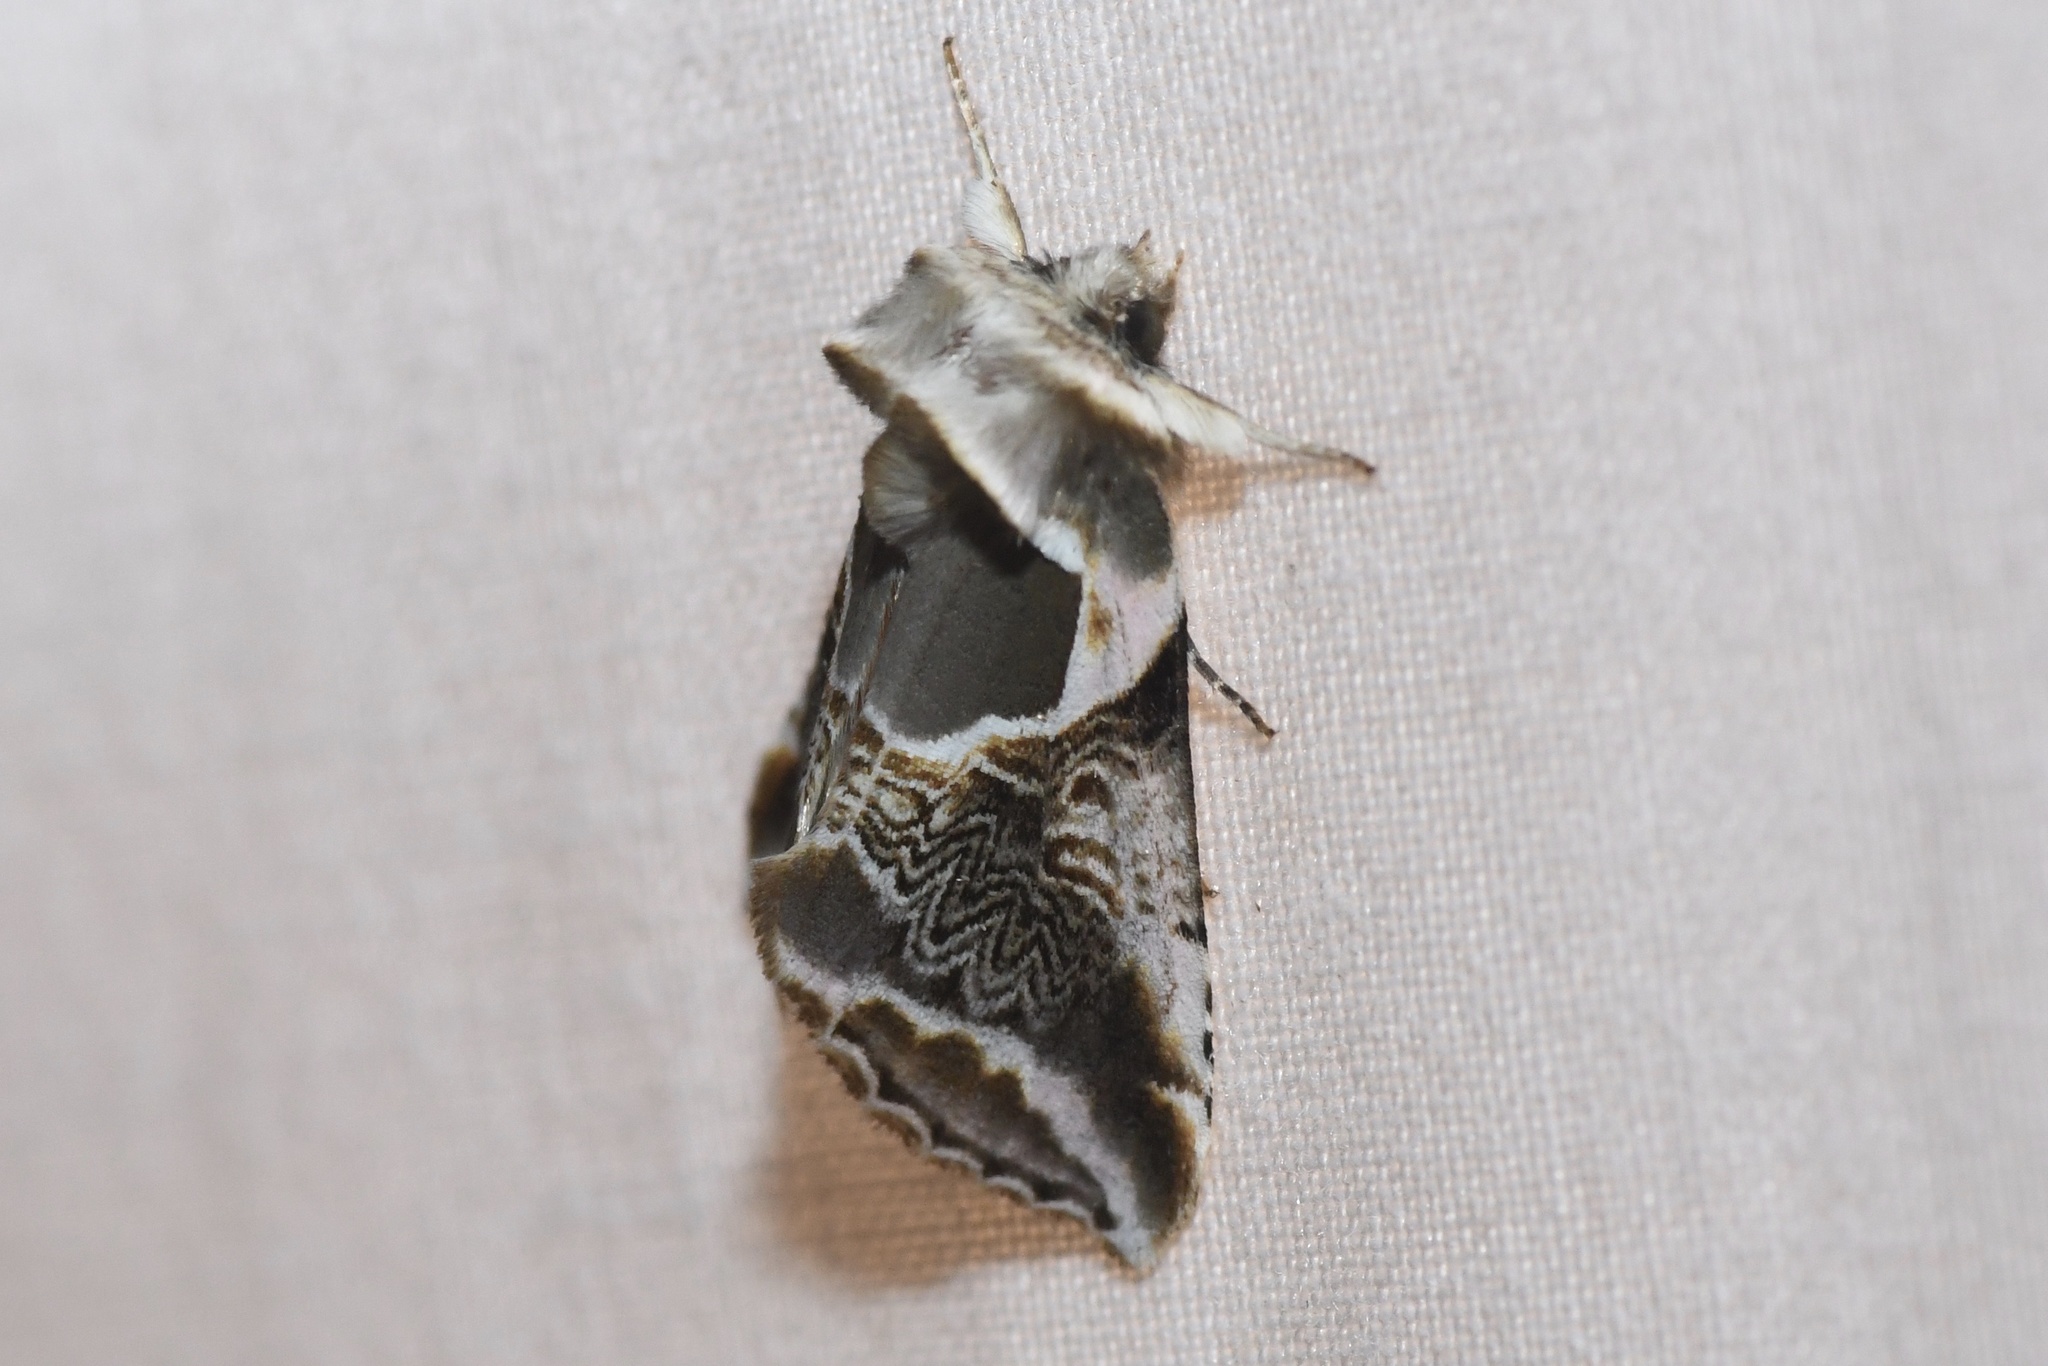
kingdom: Animalia
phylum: Arthropoda
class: Insecta
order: Lepidoptera
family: Drepanidae
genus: Habrosyne
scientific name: Habrosyne scripta
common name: Lettered habrosyne moth
